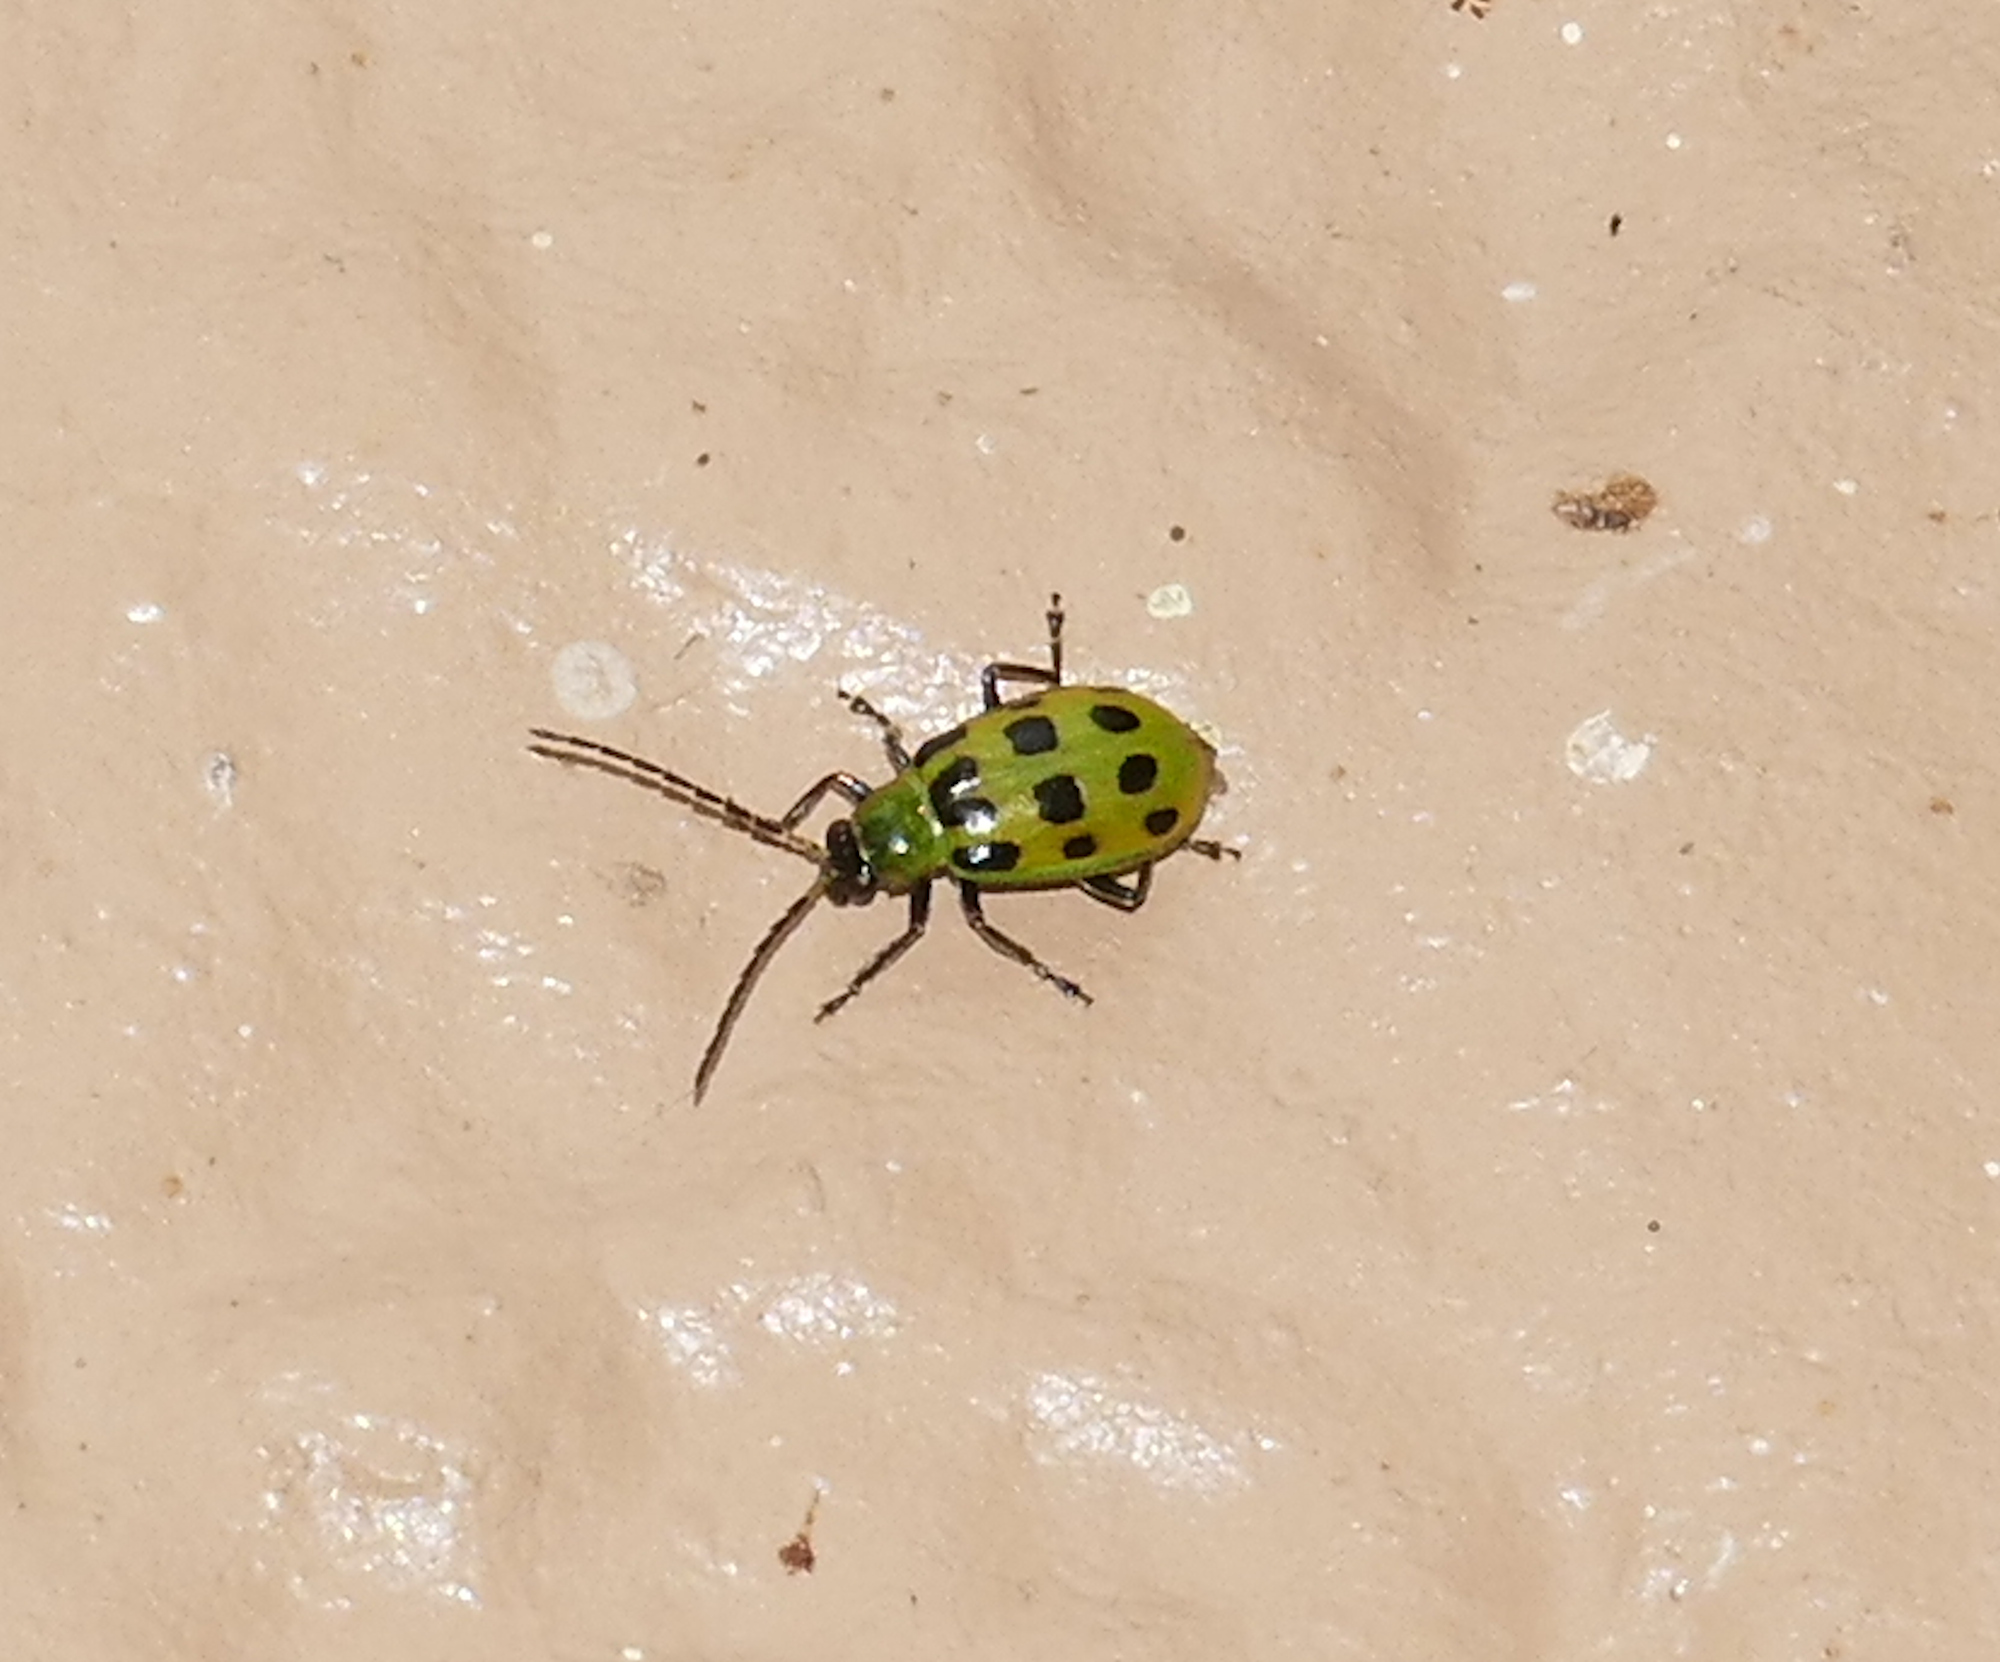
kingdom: Animalia
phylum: Arthropoda
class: Insecta
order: Coleoptera
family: Chrysomelidae
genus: Diabrotica
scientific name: Diabrotica undecimpunctata
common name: Spotted cucumber beetle
